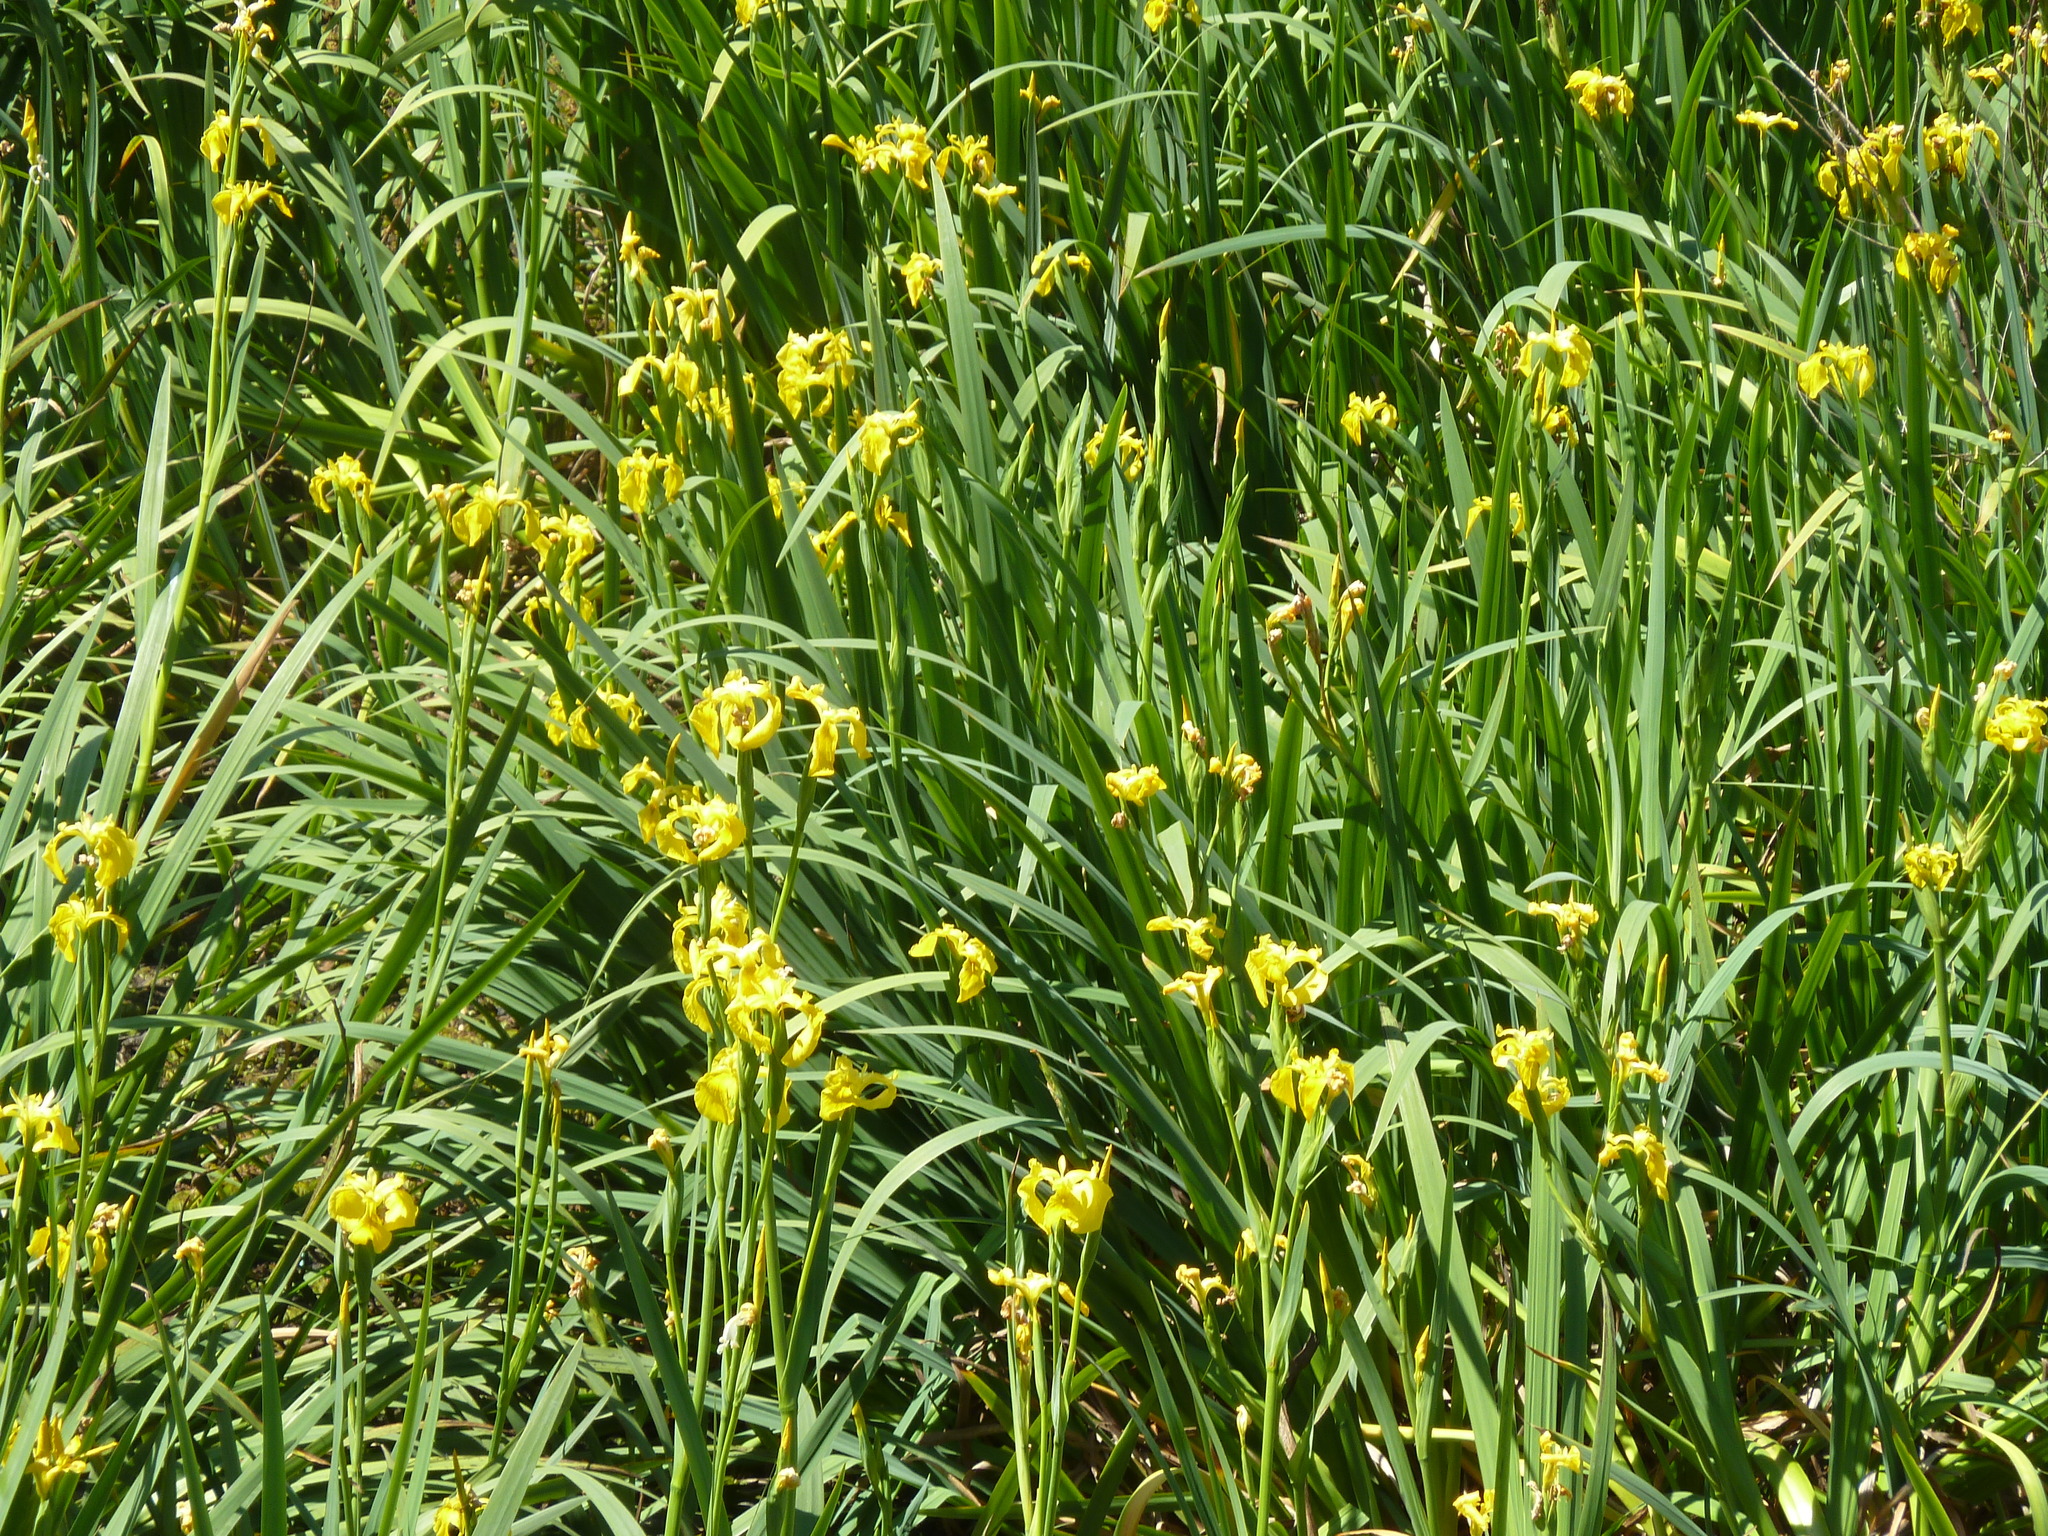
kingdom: Plantae
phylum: Tracheophyta
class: Liliopsida
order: Asparagales
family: Iridaceae
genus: Iris
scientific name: Iris pseudacorus
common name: Yellow flag
